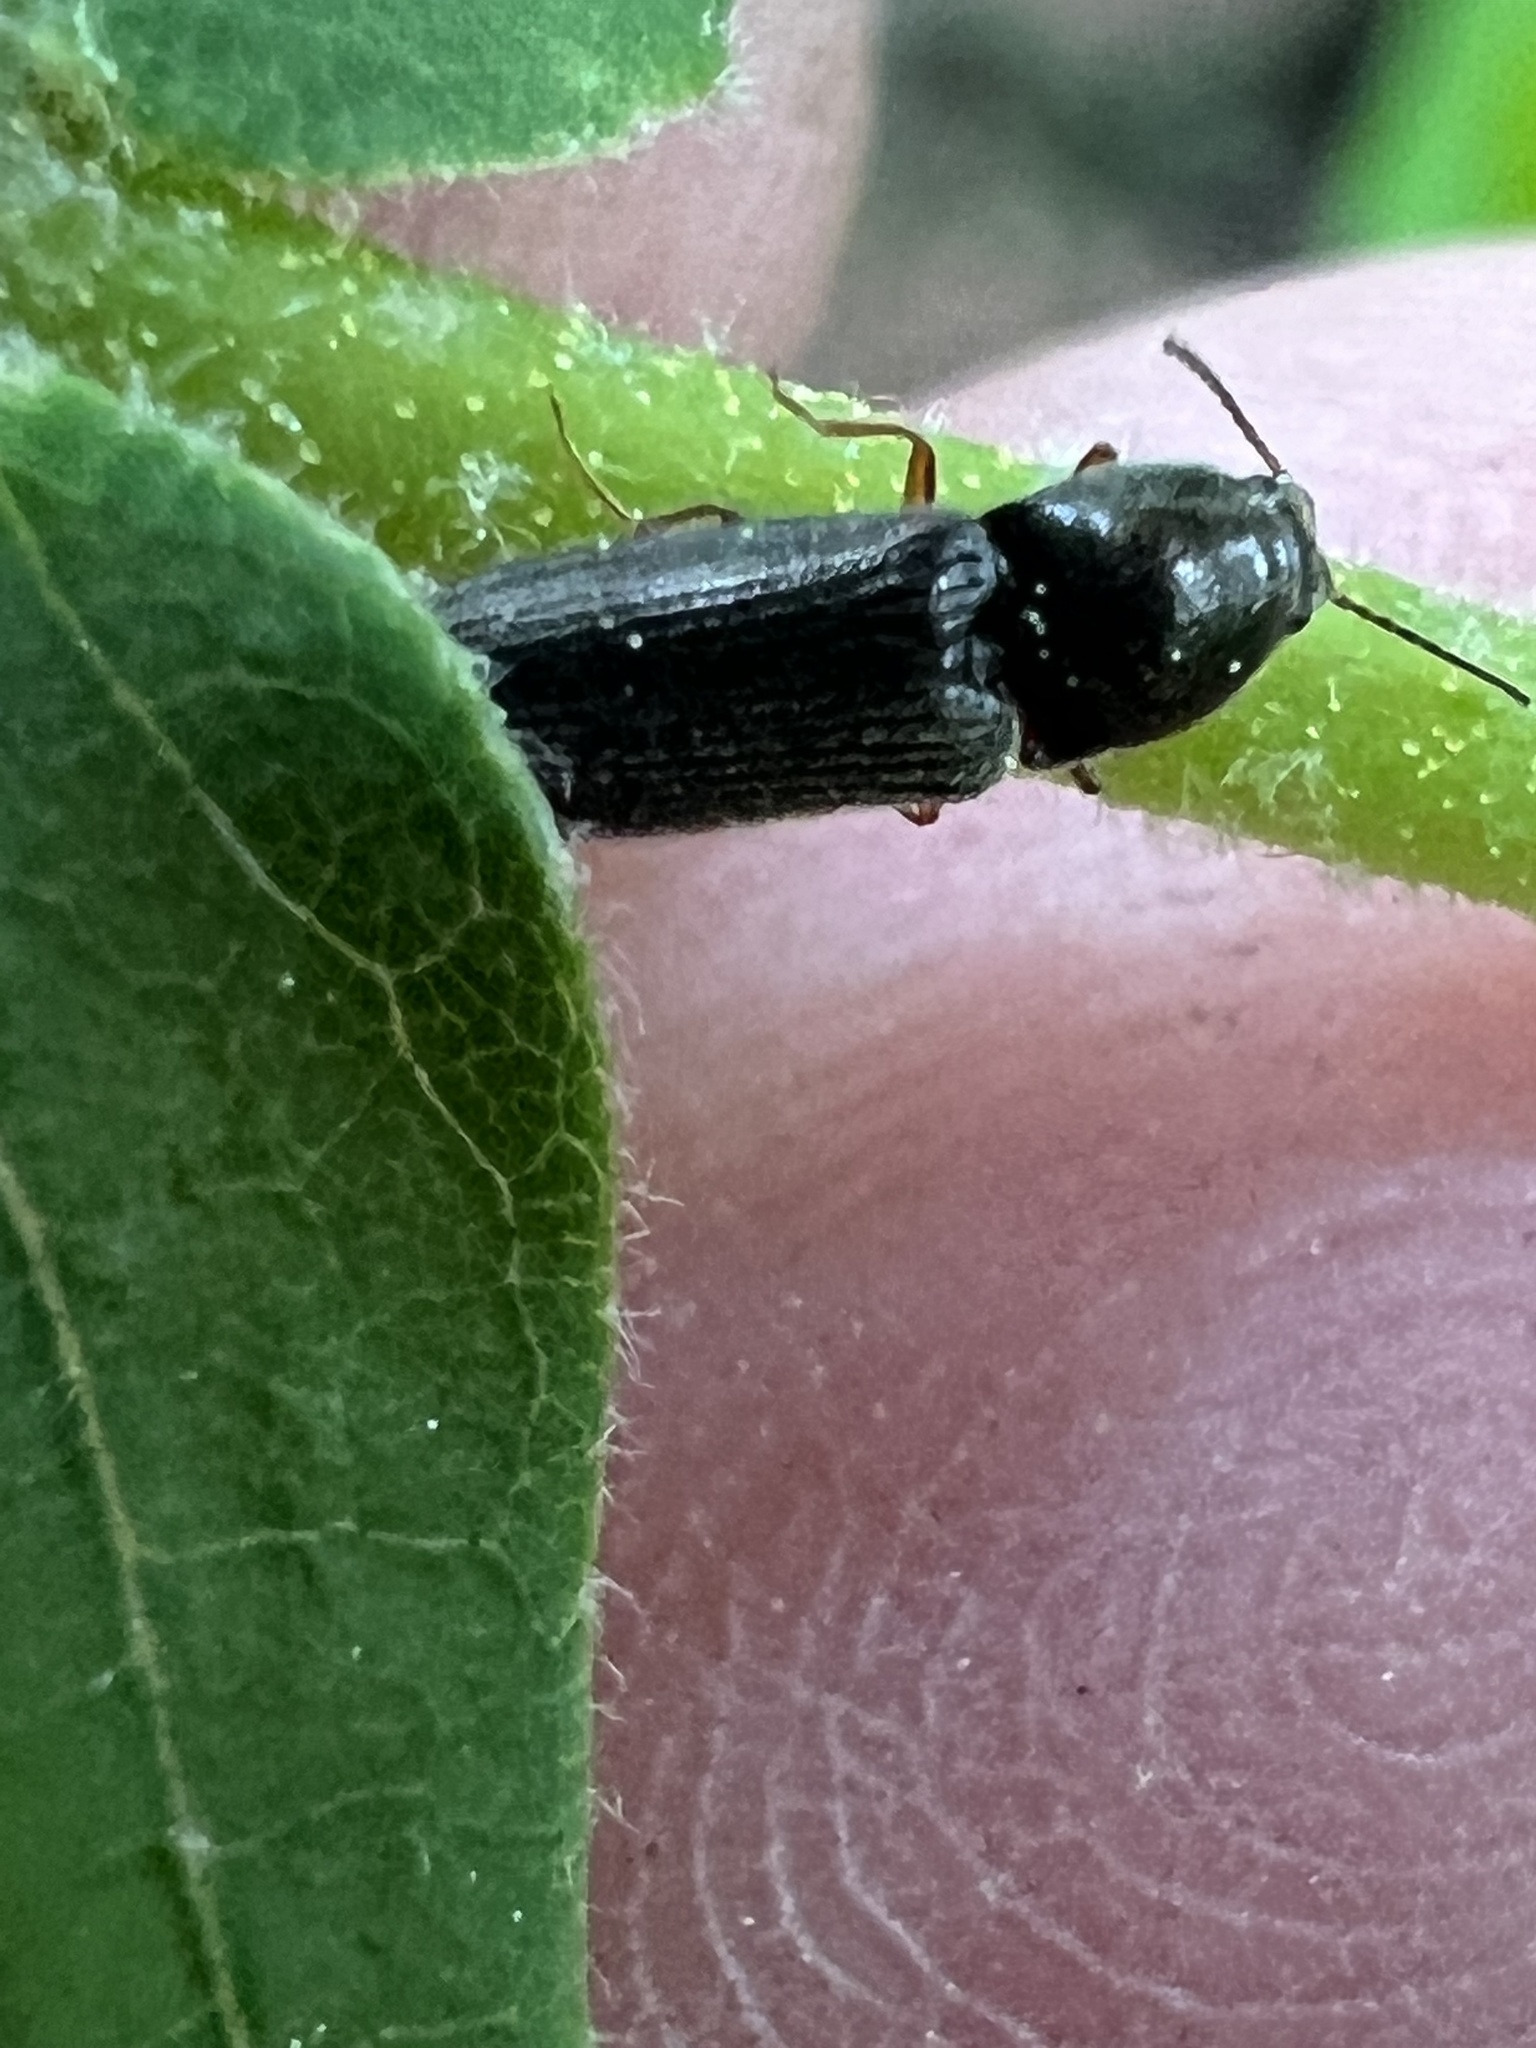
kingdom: Animalia
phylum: Arthropoda
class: Insecta
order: Coleoptera
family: Elateridae
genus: Limonius
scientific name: Limonius quercinus
